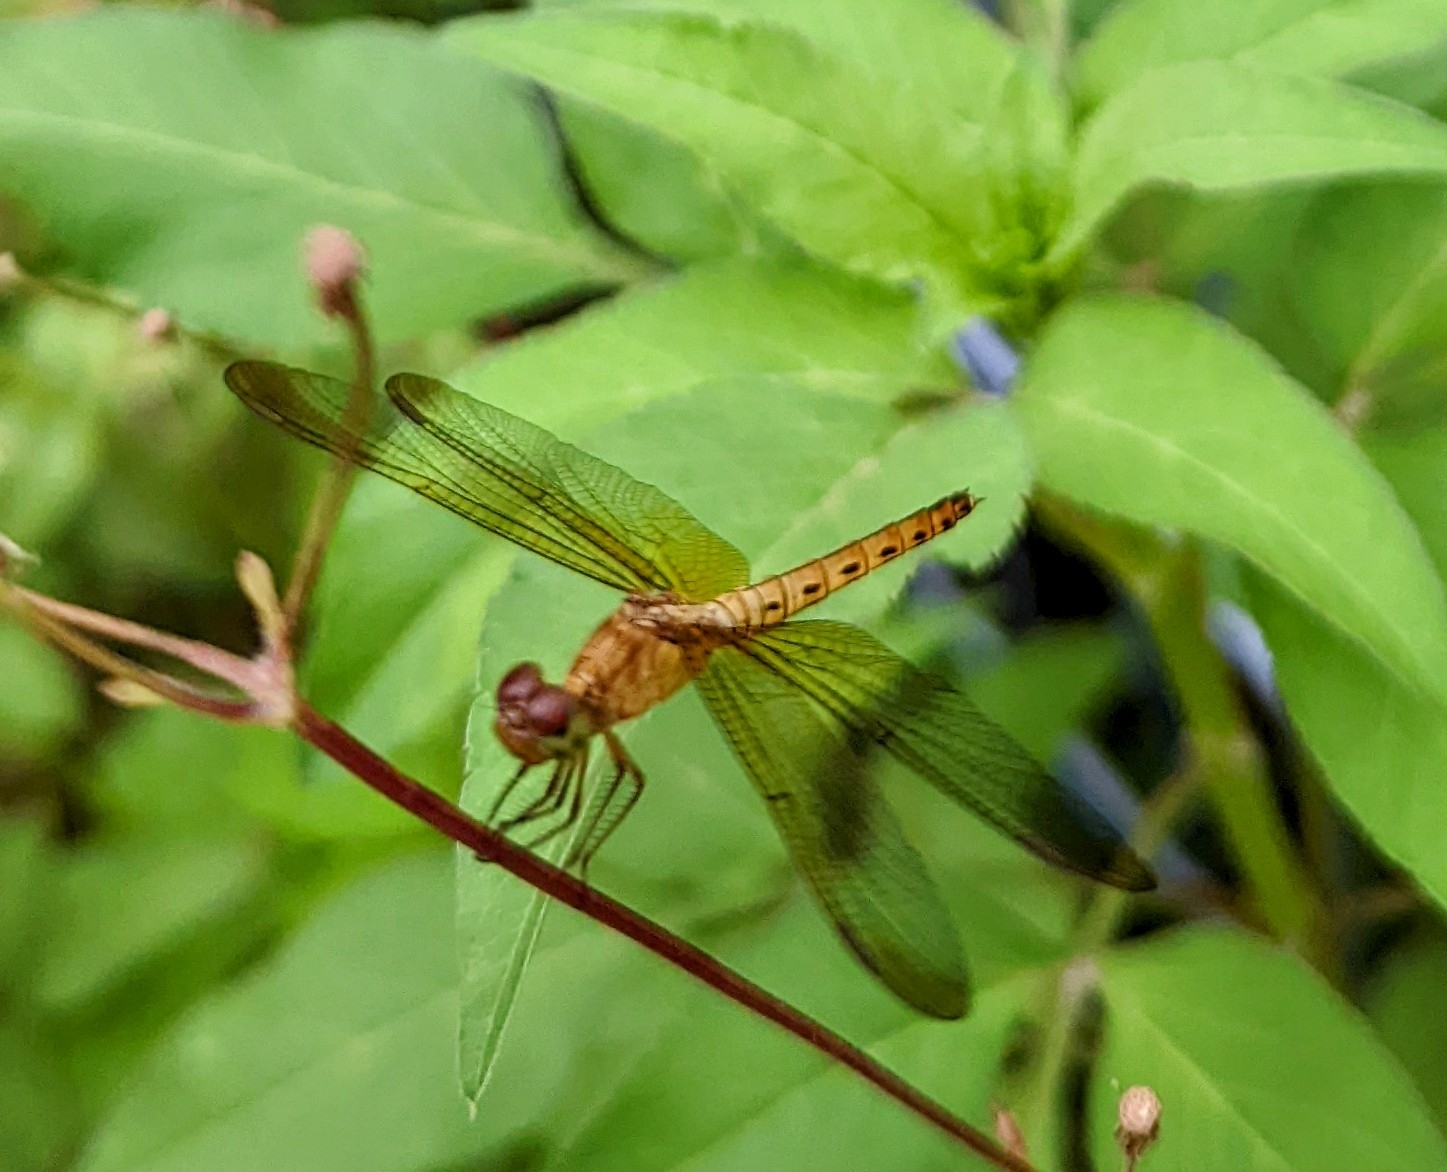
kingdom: Animalia
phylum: Arthropoda
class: Insecta
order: Odonata
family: Libellulidae
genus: Neurothemis
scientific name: Neurothemis fluctuans
